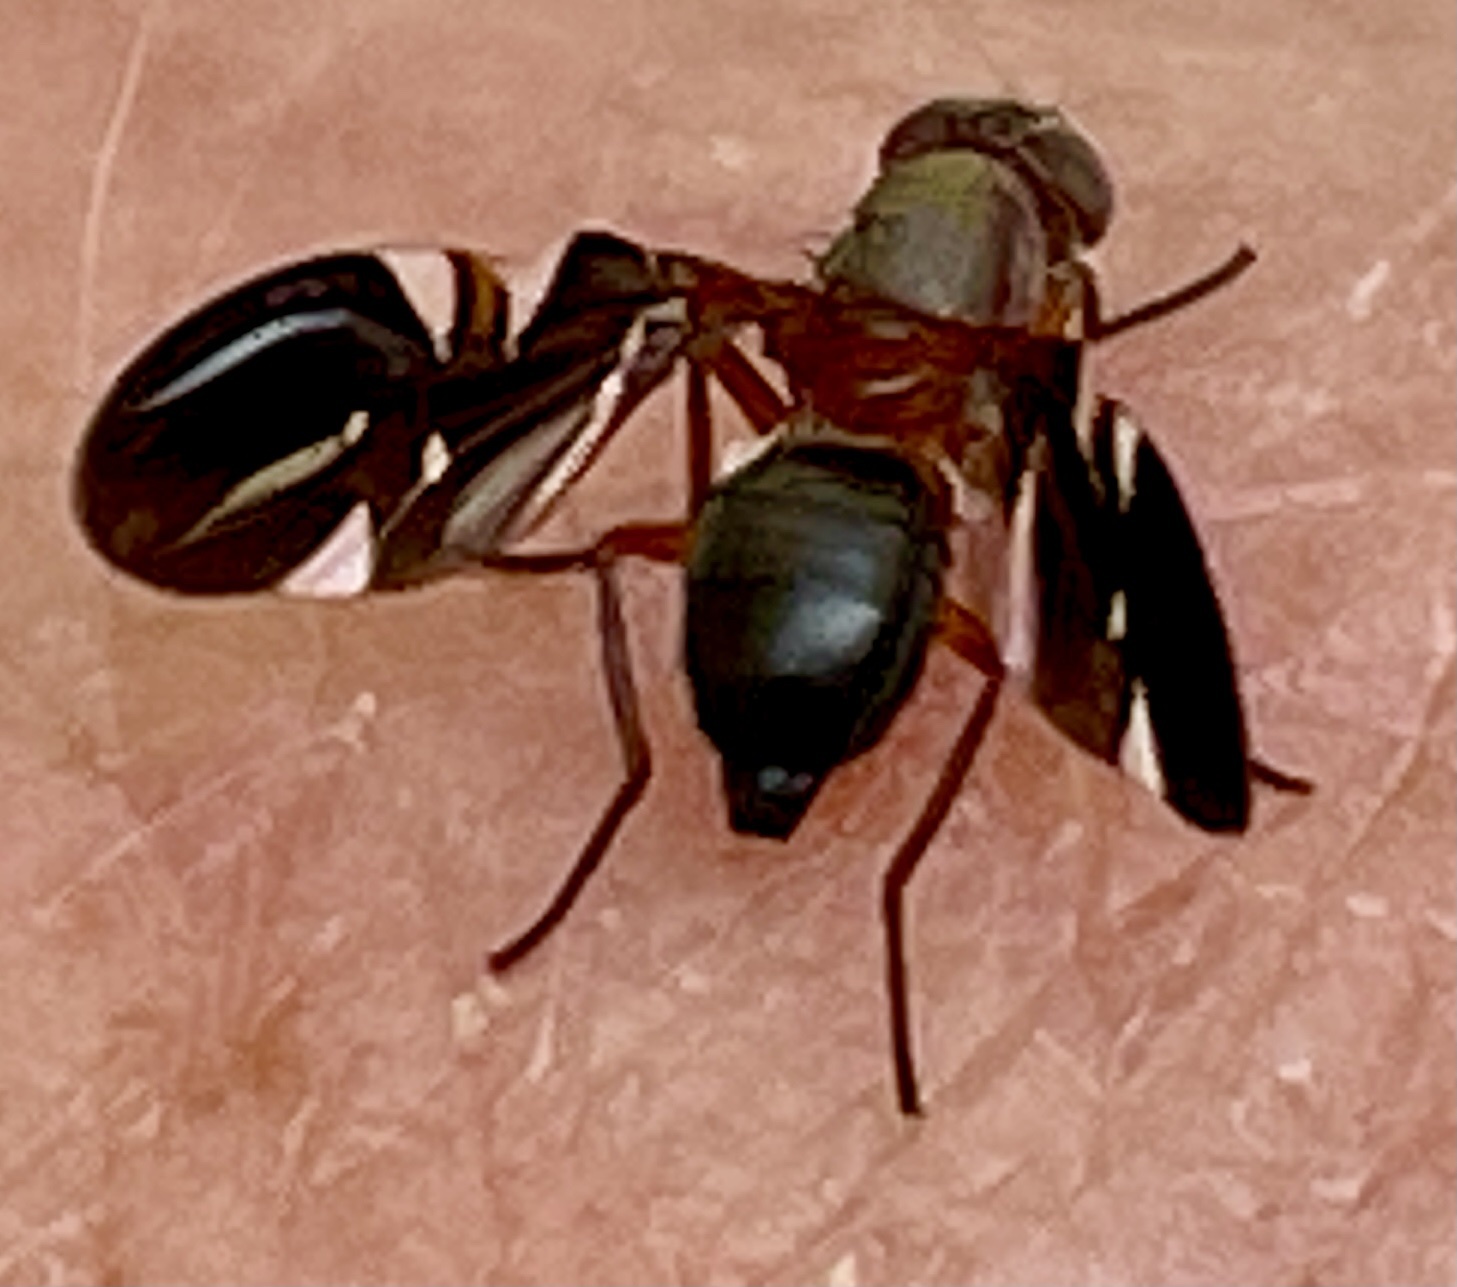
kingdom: Animalia
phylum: Arthropoda
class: Insecta
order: Diptera
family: Ulidiidae
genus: Delphinia
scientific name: Delphinia picta
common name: Common picture-winged fly
